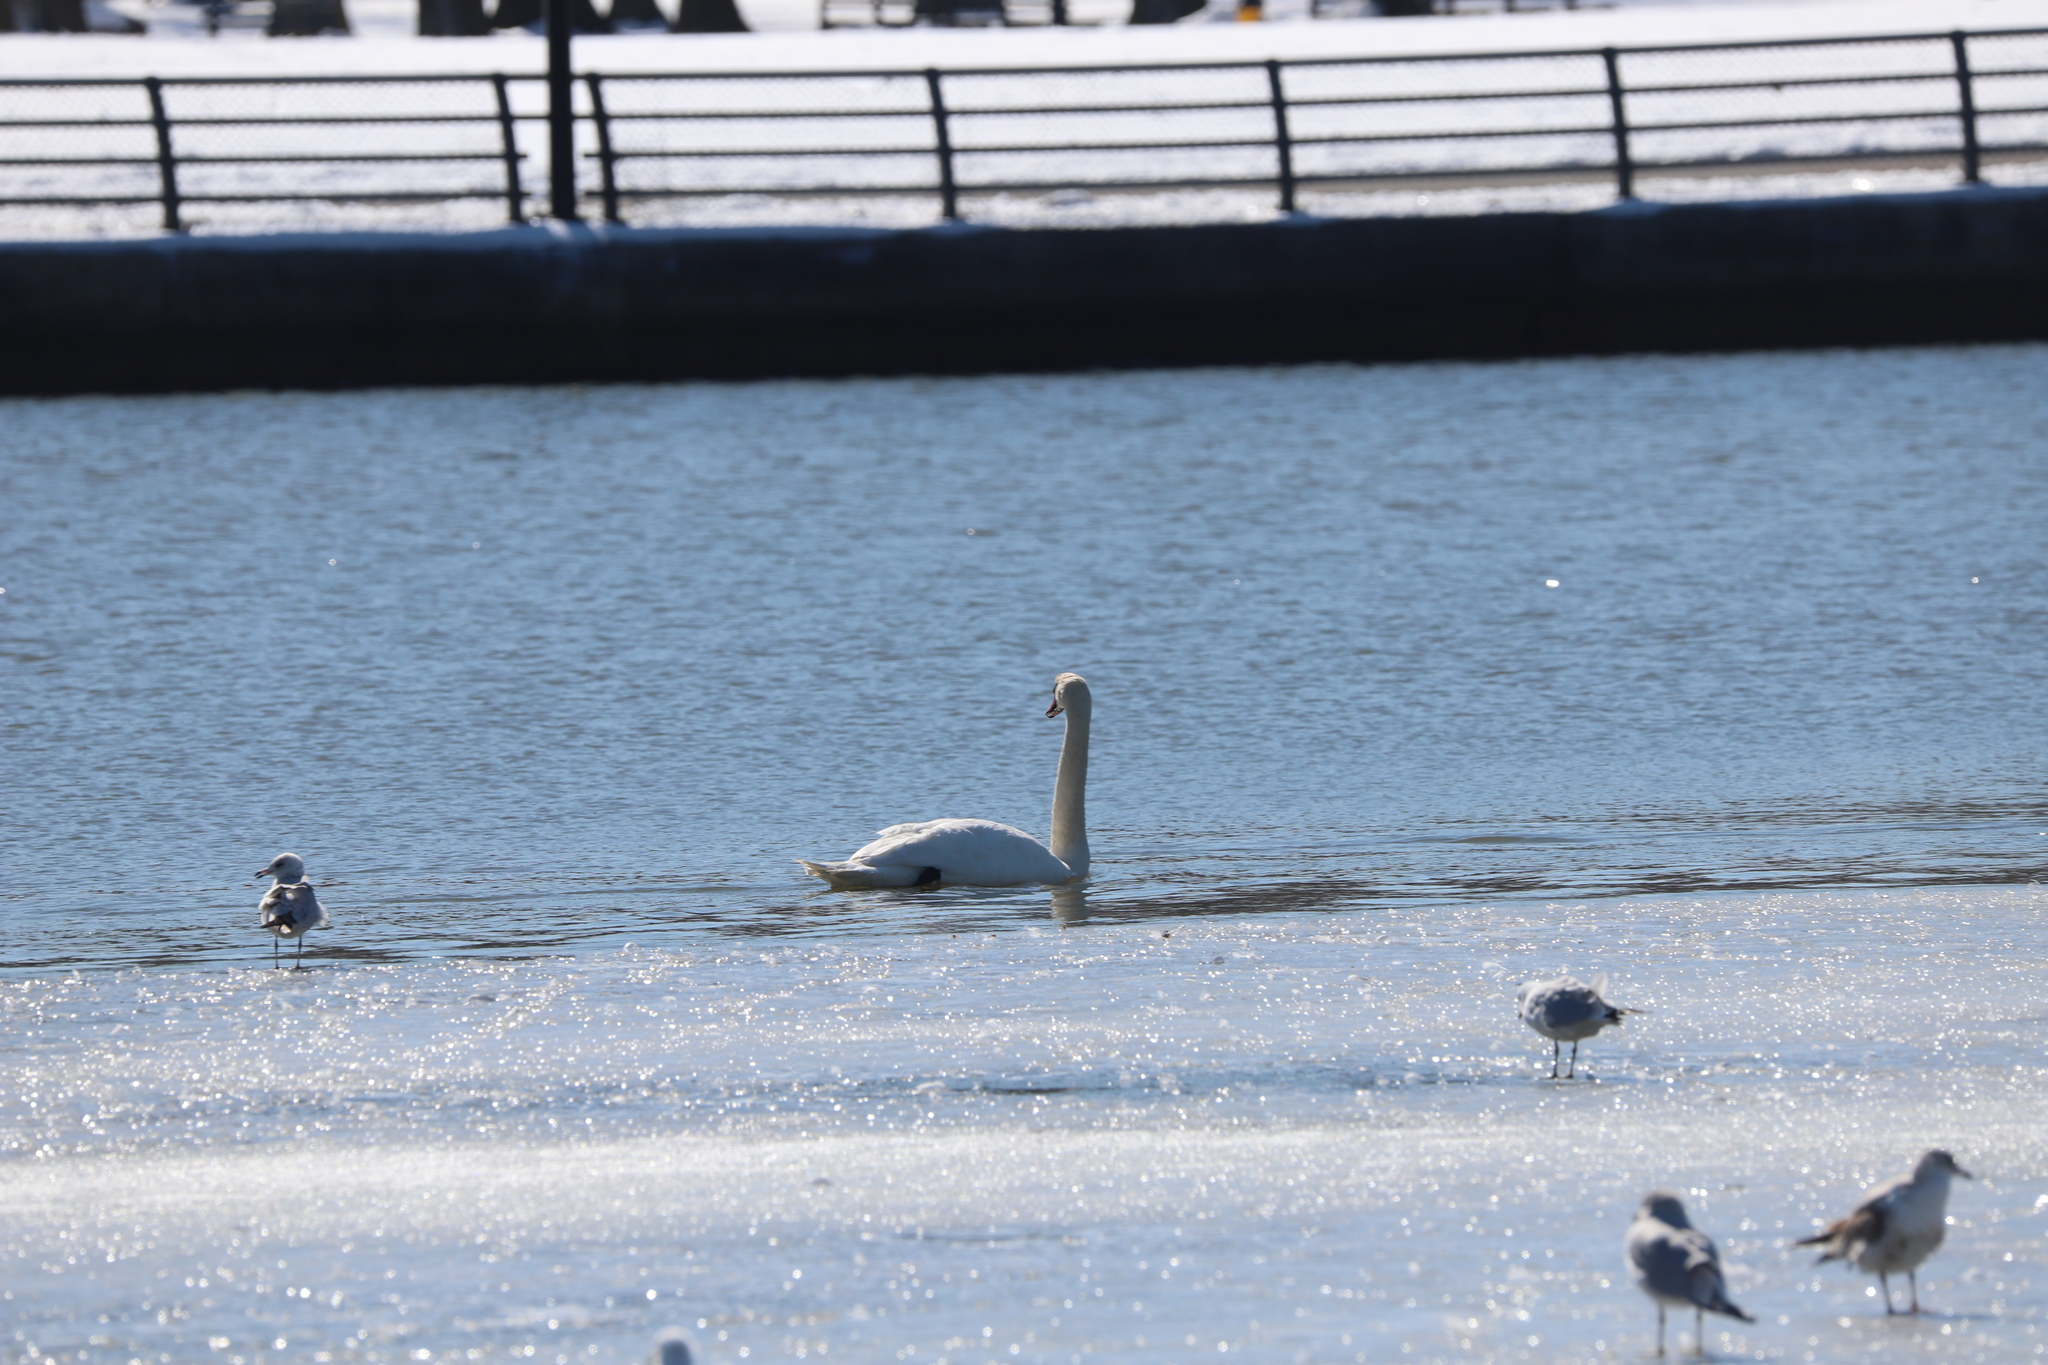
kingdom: Animalia
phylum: Chordata
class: Aves
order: Anseriformes
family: Anatidae
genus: Cygnus
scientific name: Cygnus olor
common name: Mute swan
